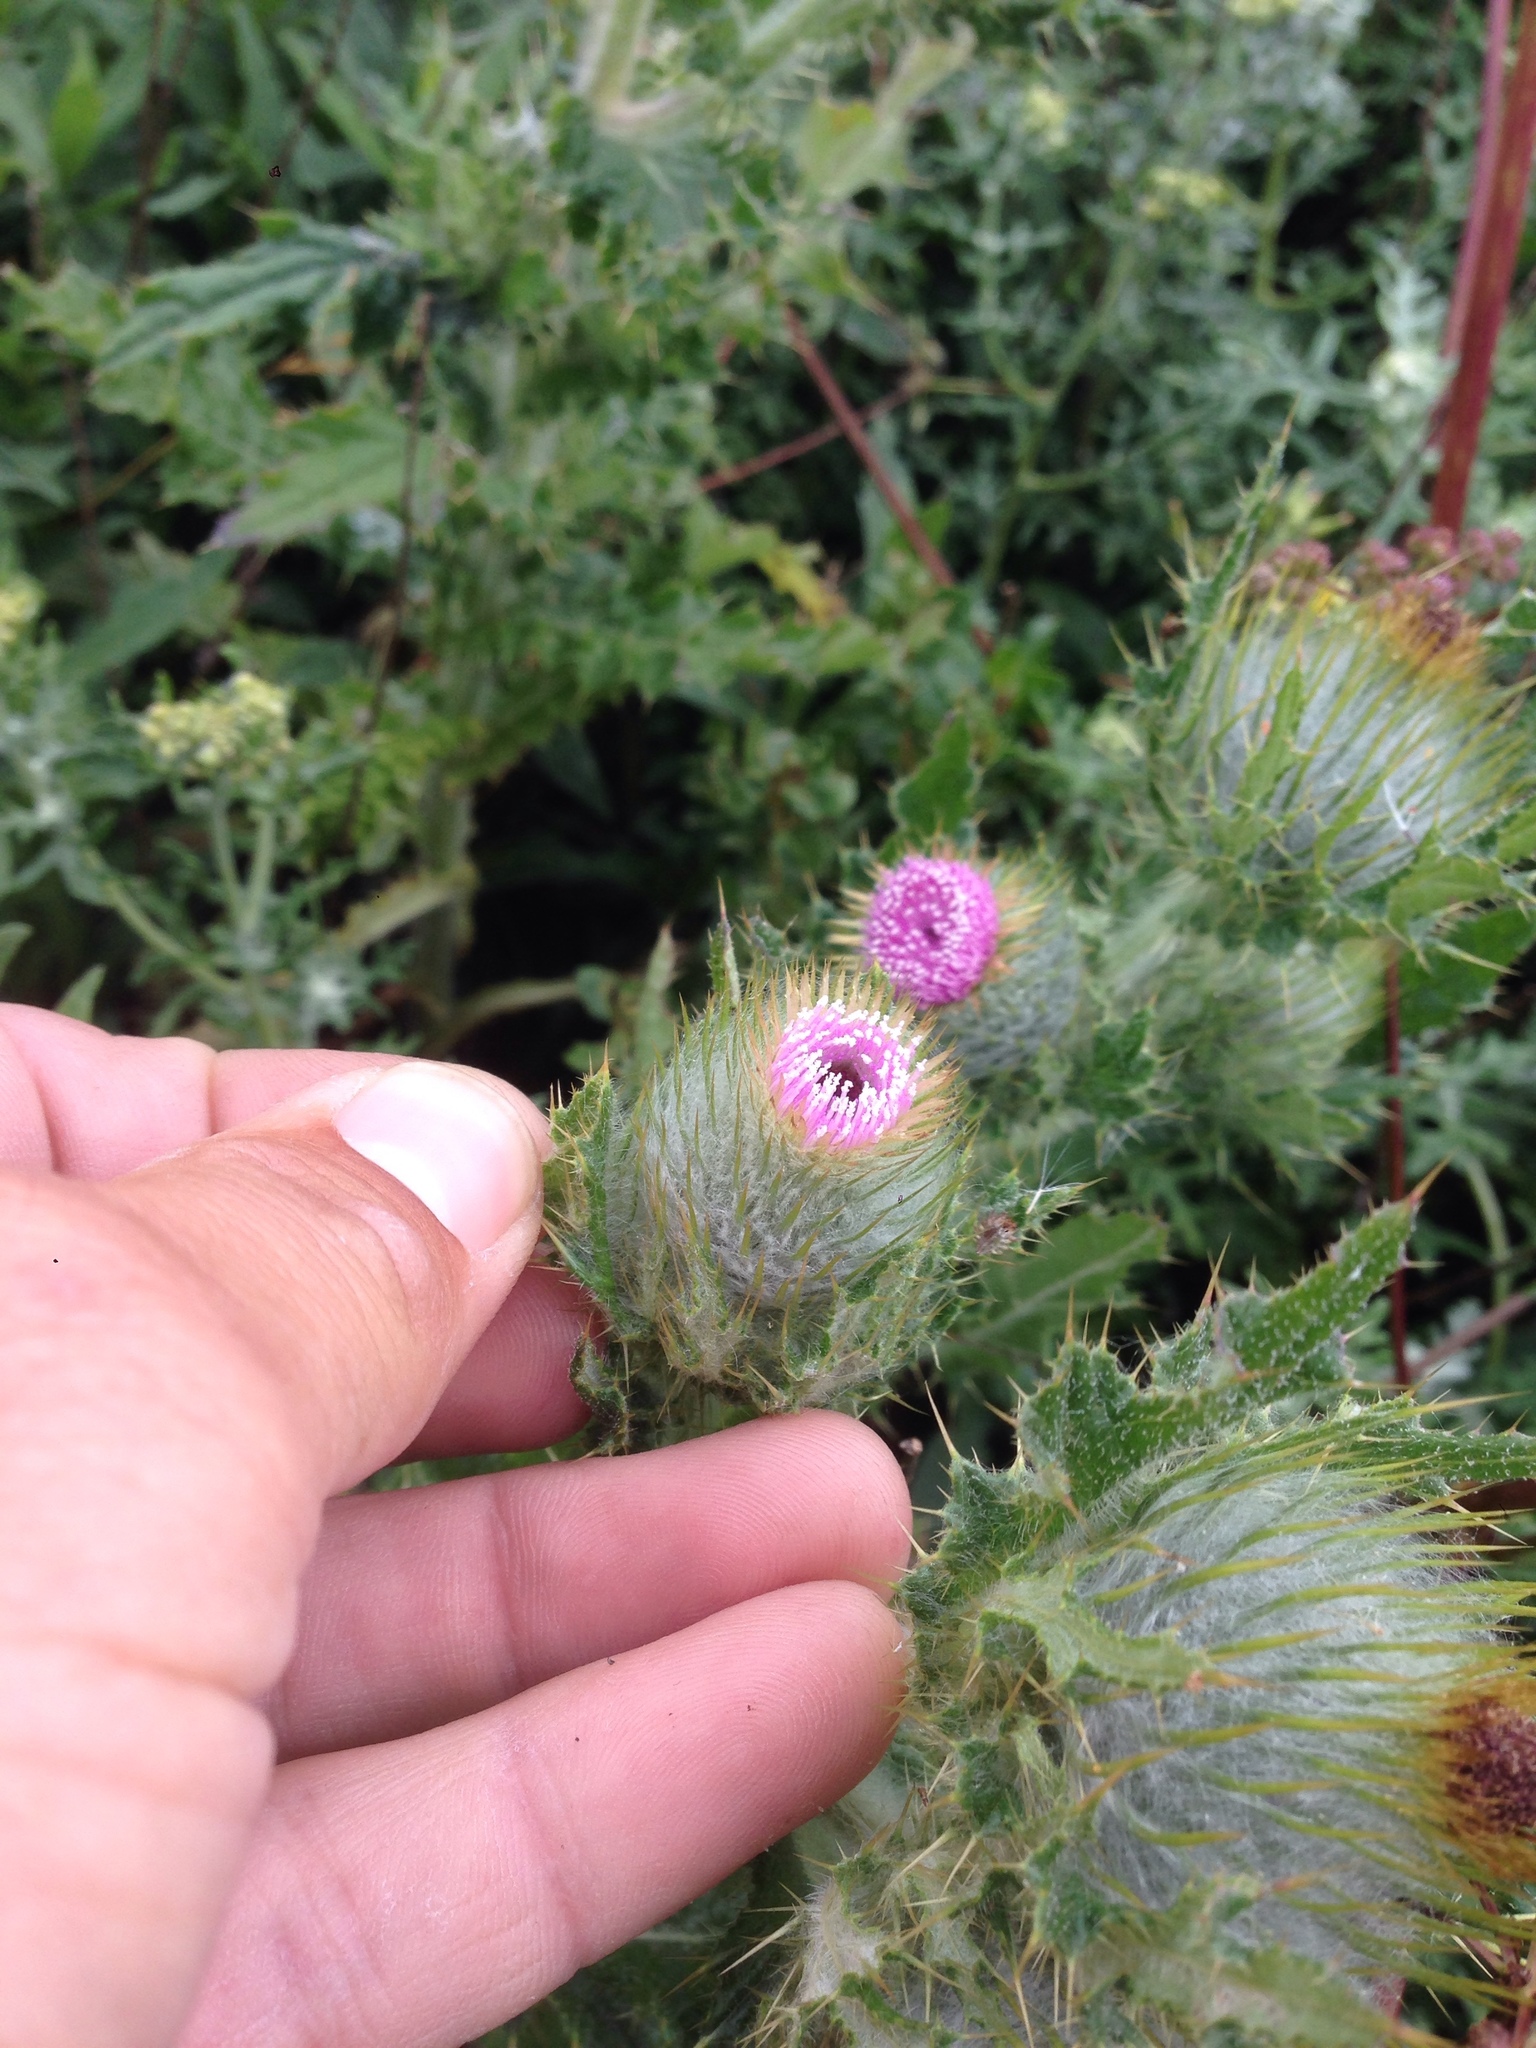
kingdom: Plantae
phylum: Tracheophyta
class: Magnoliopsida
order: Asterales
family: Asteraceae
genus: Cirsium
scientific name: Cirsium brevistylum
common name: Indian thistle
